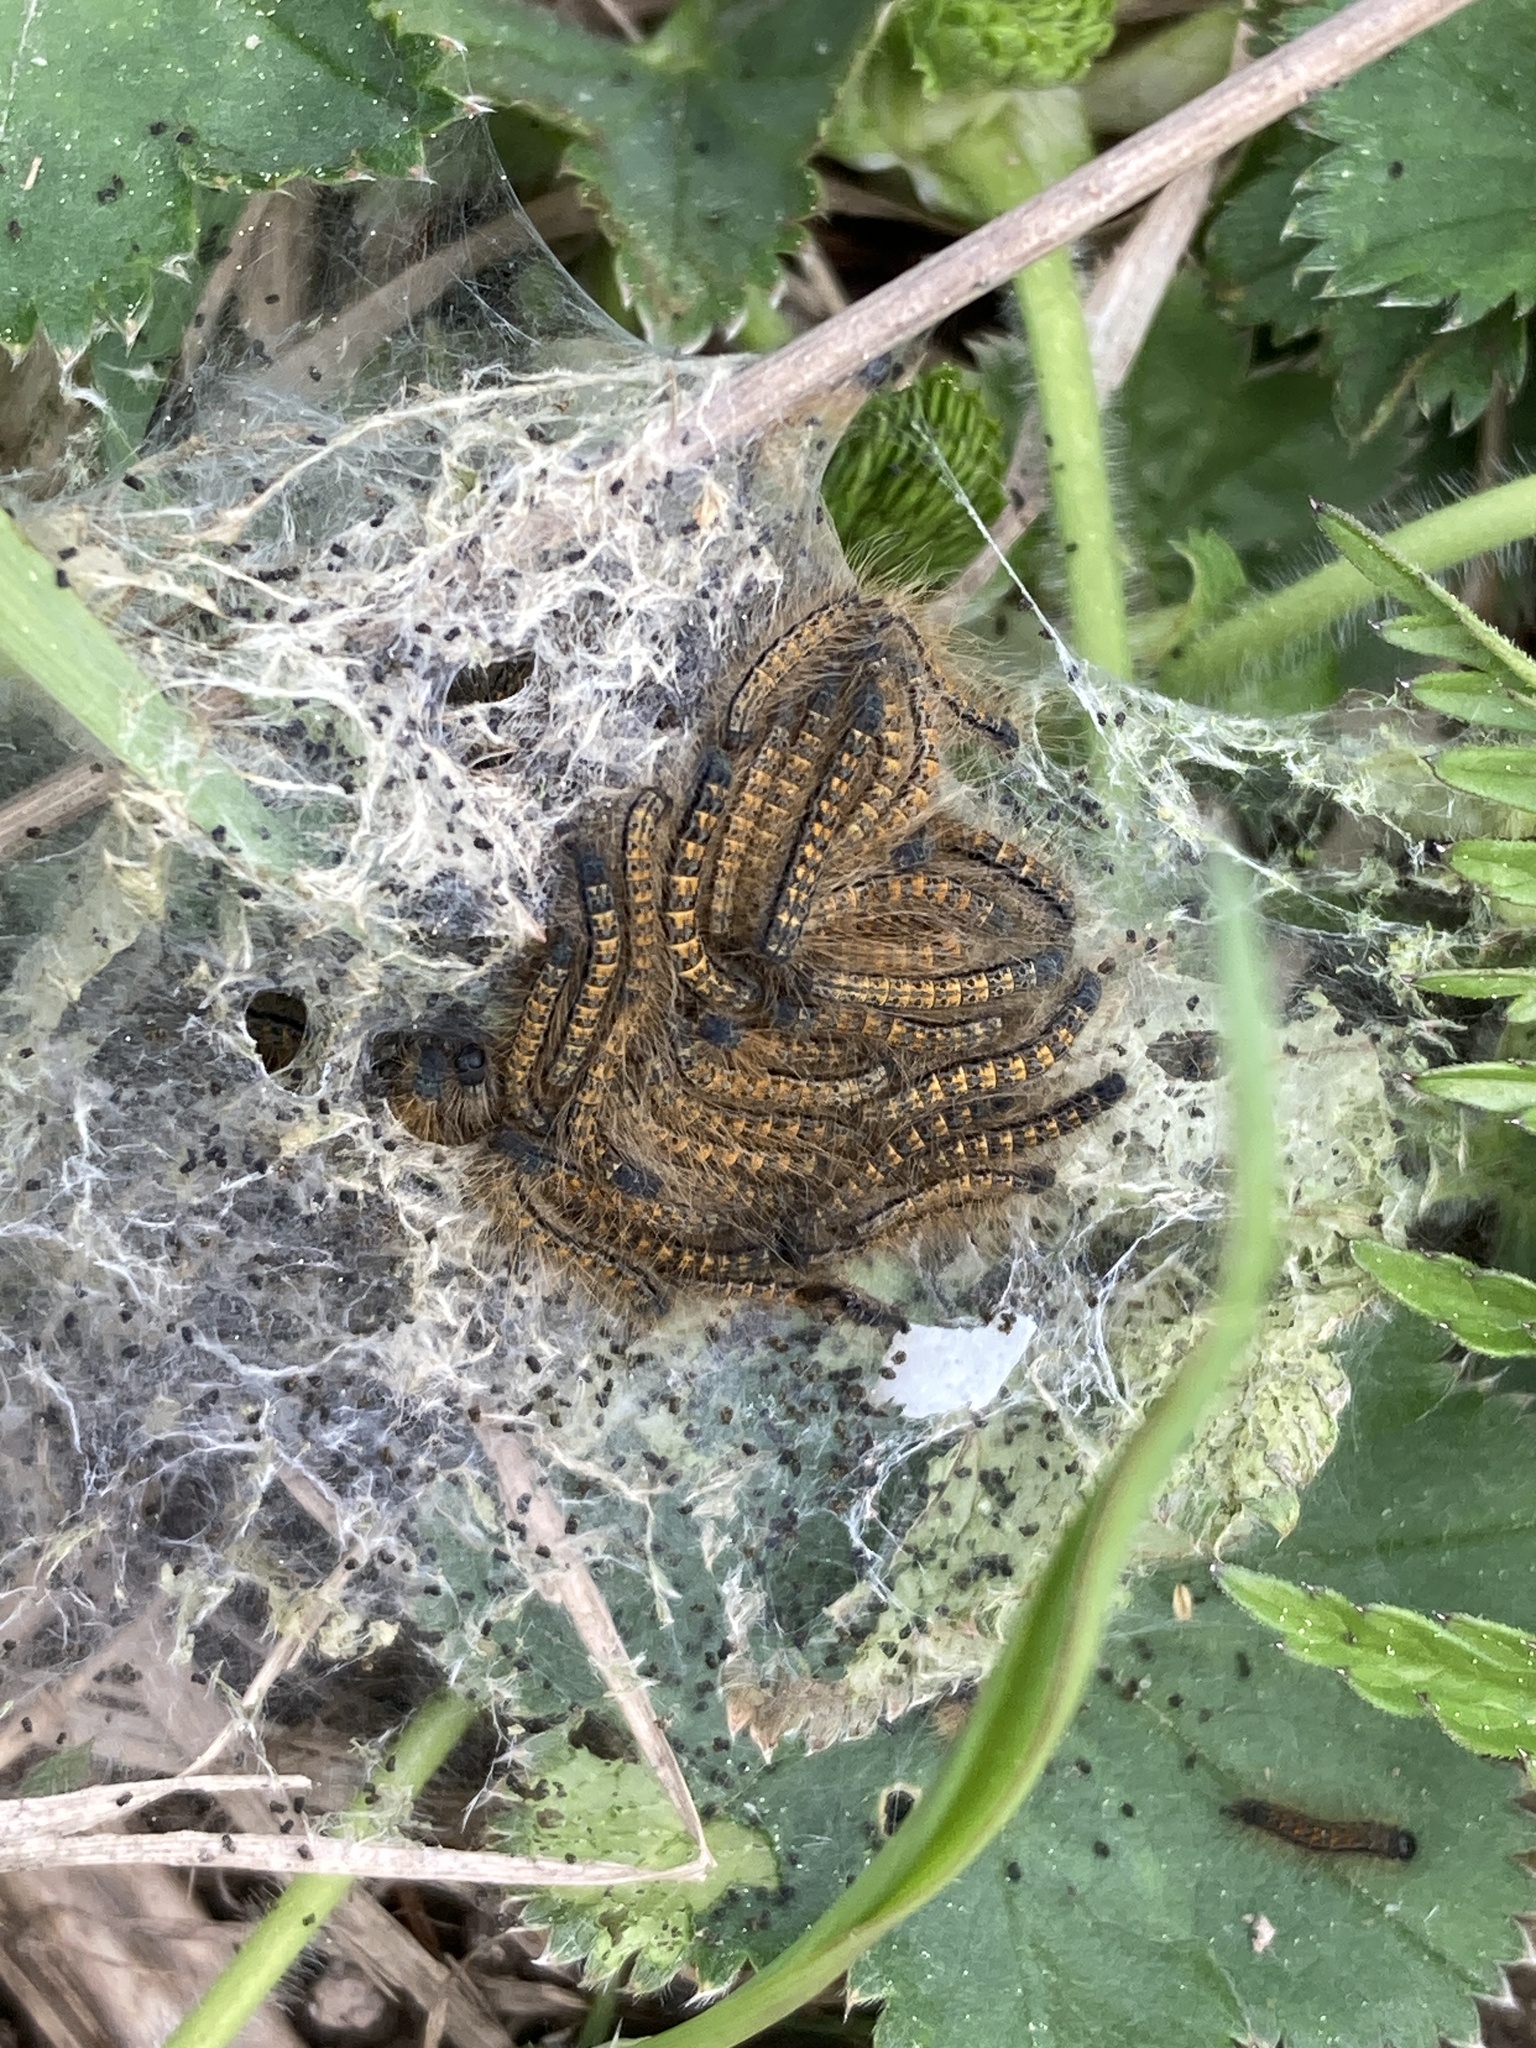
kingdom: Animalia
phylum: Arthropoda
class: Insecta
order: Lepidoptera
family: Lasiocampidae
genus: Malacosoma
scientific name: Malacosoma castrense
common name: Ground lackey
